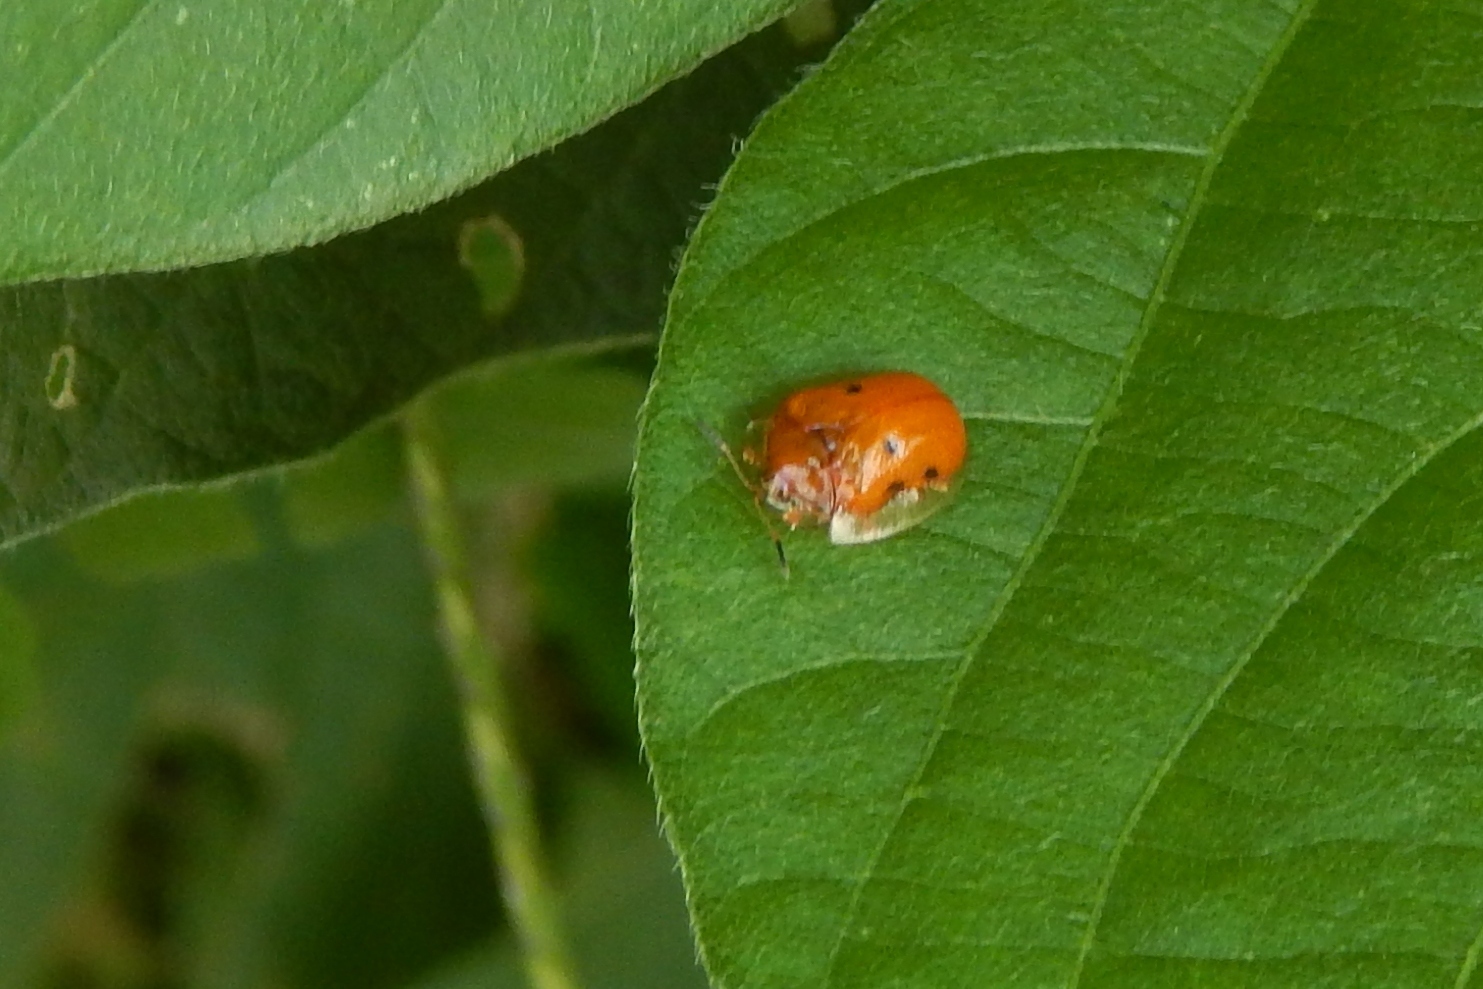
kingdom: Animalia
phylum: Arthropoda
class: Insecta
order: Coleoptera
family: Chrysomelidae
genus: Charidotella
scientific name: Charidotella sexpunctata
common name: Golden tortoise beetle
